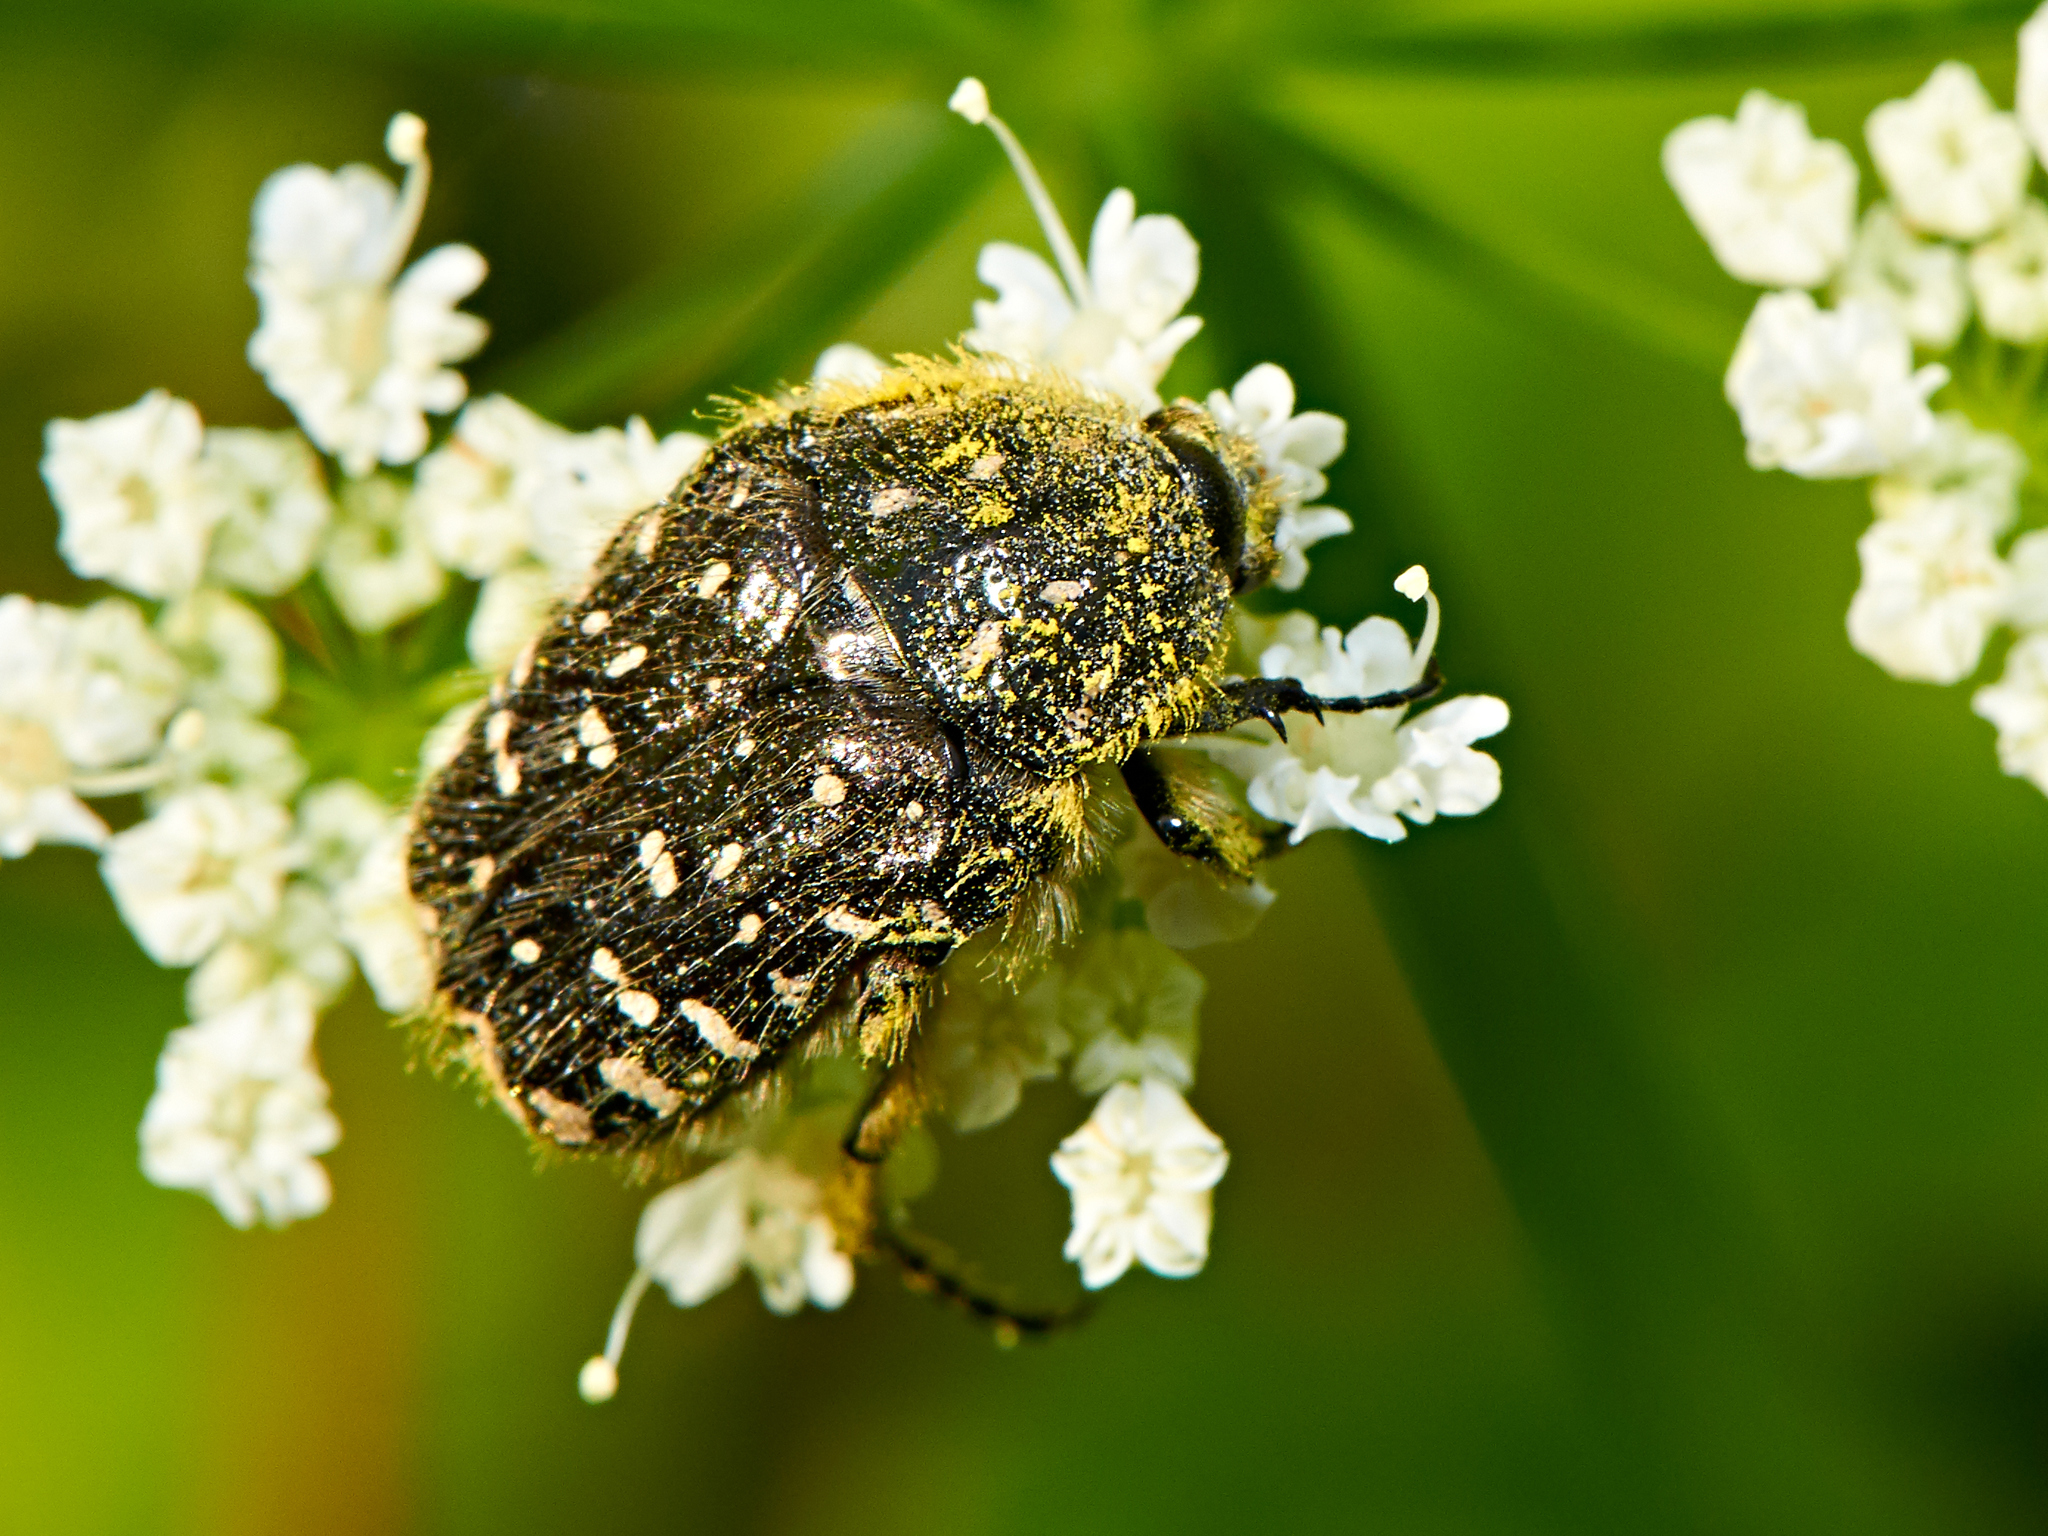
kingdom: Animalia
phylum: Arthropoda
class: Insecta
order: Coleoptera
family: Scarabaeidae
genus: Oxythyrea
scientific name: Oxythyrea funesta
